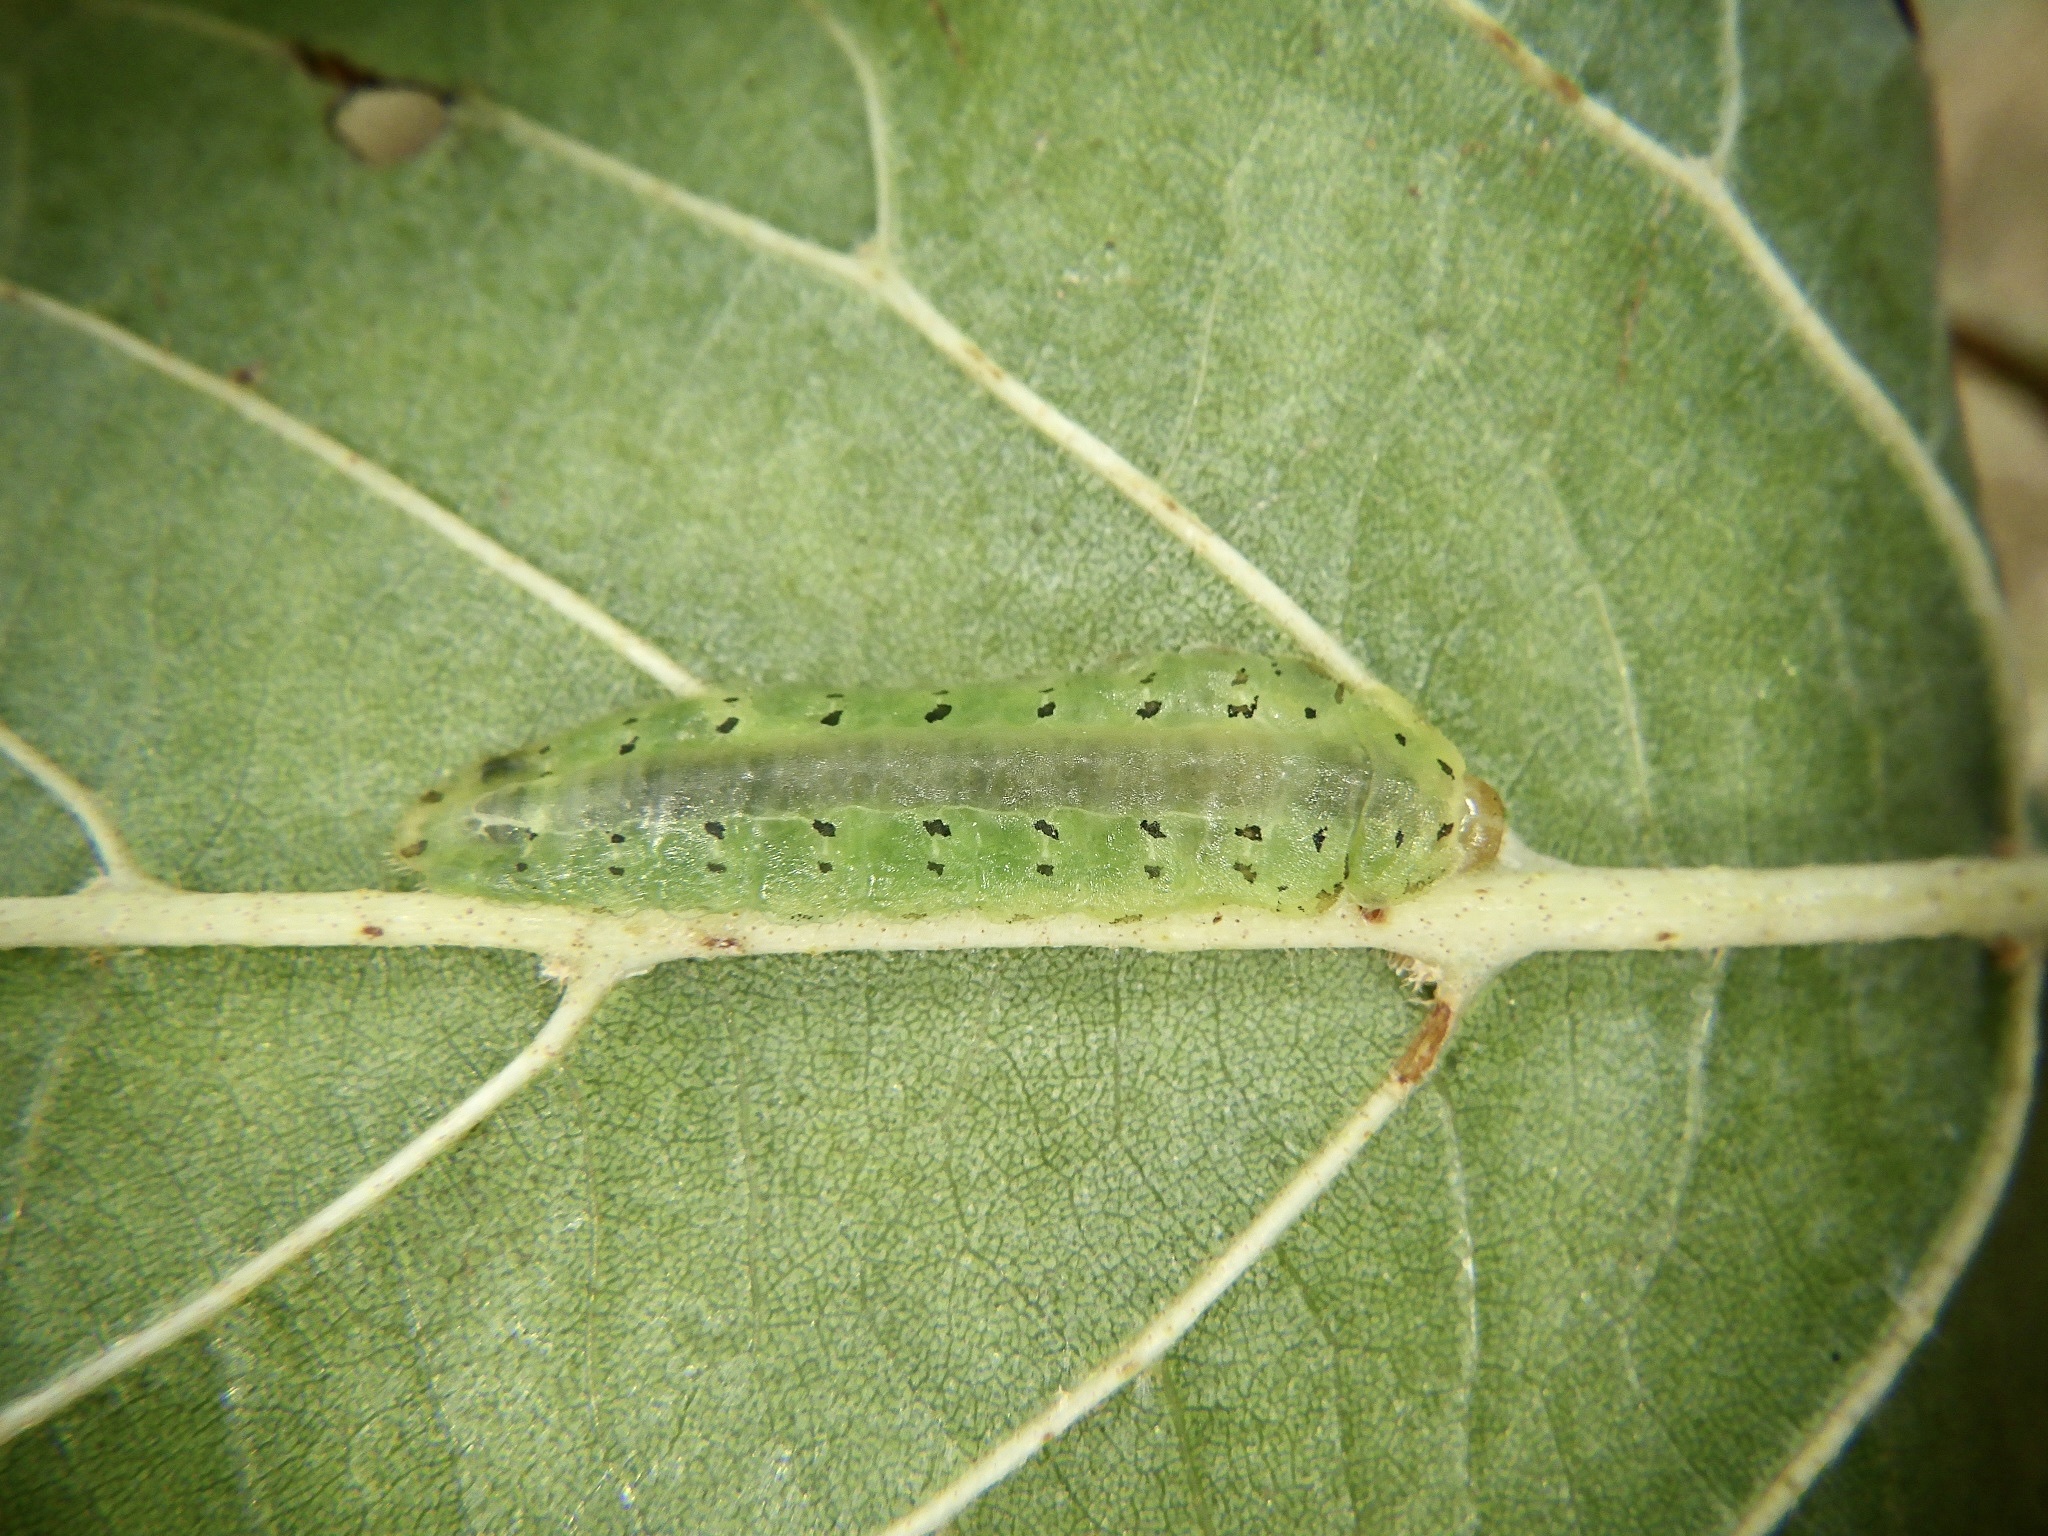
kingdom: Animalia
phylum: Arthropoda
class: Insecta
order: Hymenoptera
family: Tenthredinidae
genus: Platycampus
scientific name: Platycampus luridiventris
